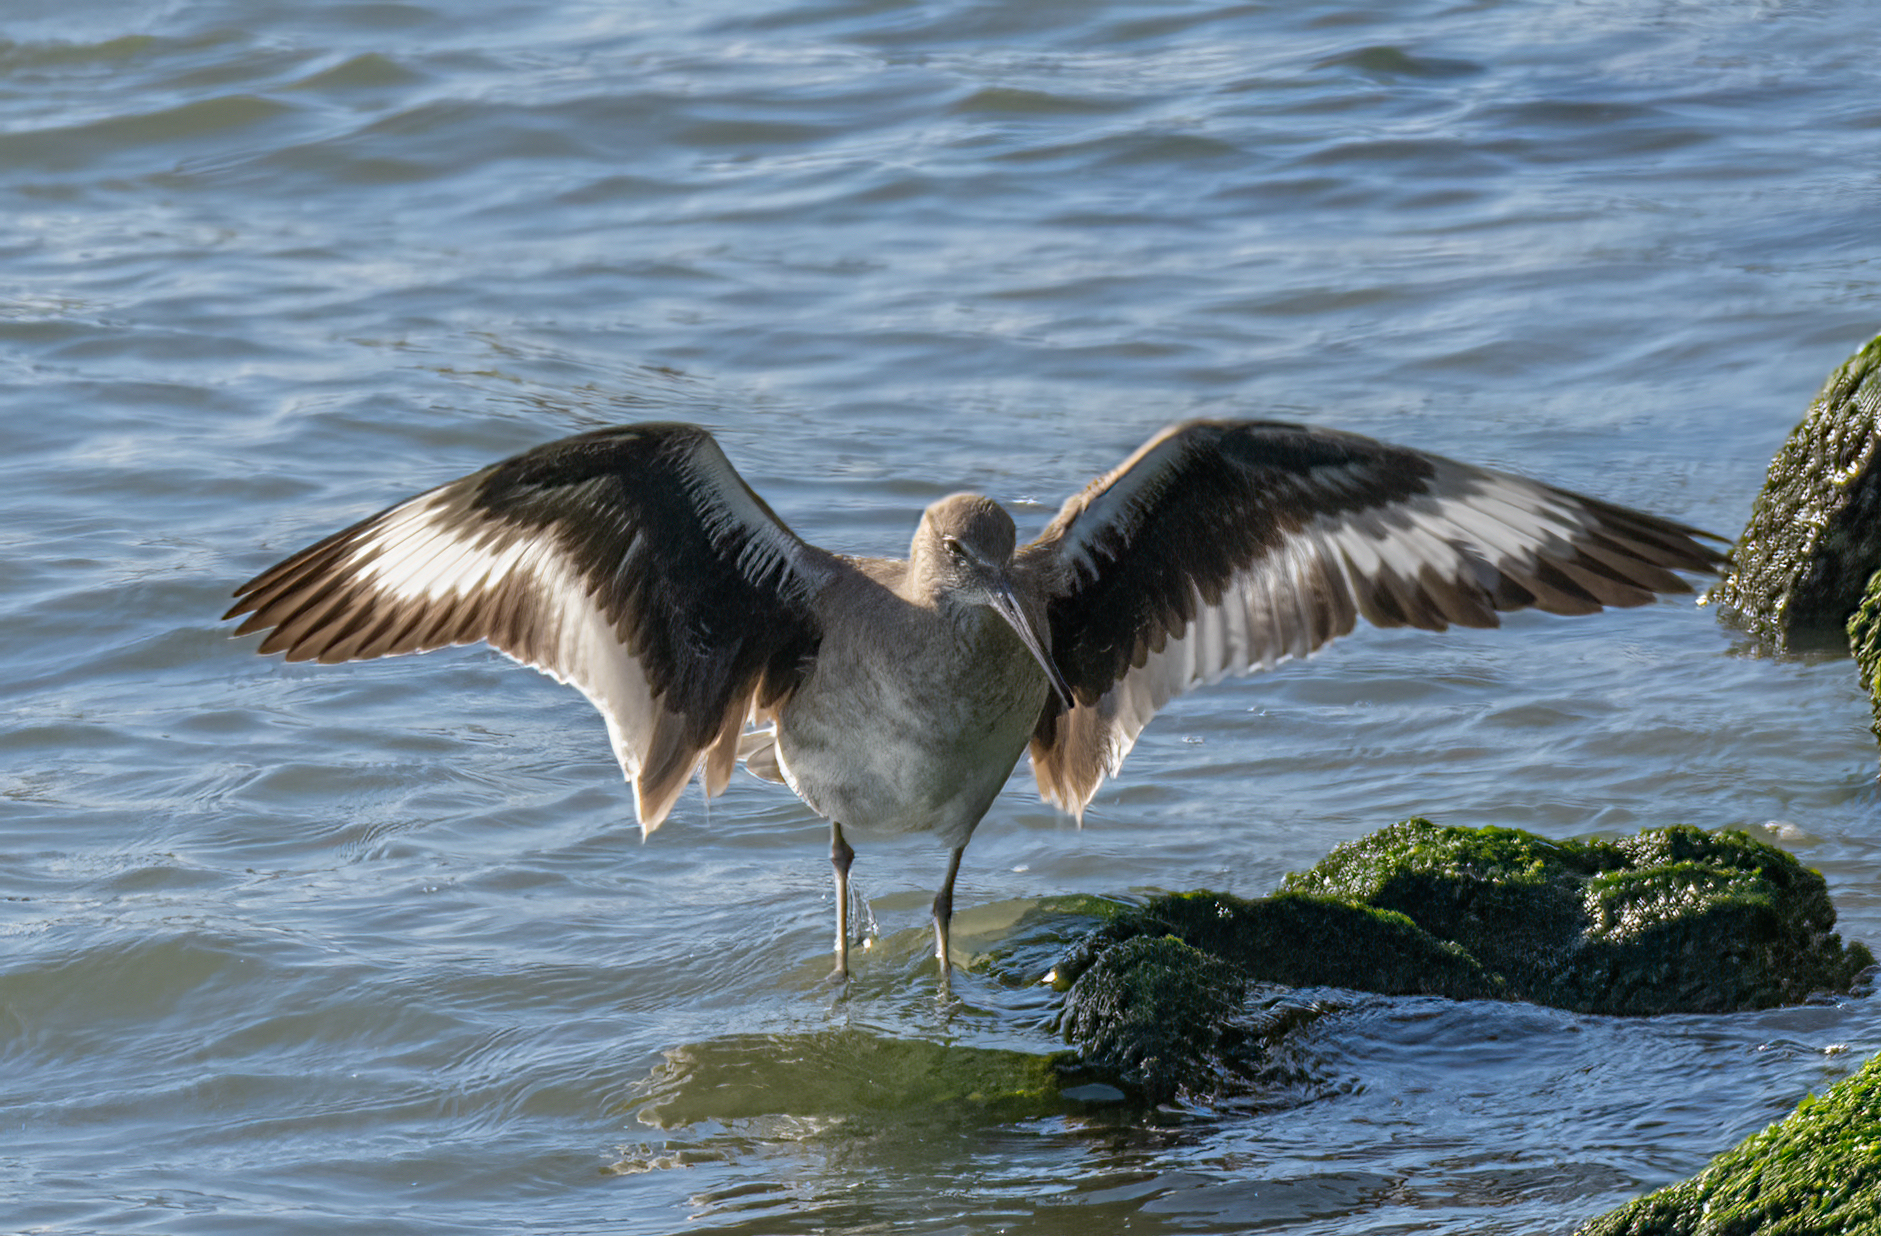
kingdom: Animalia
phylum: Chordata
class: Aves
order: Charadriiformes
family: Scolopacidae
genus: Tringa
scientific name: Tringa semipalmata
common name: Willet
